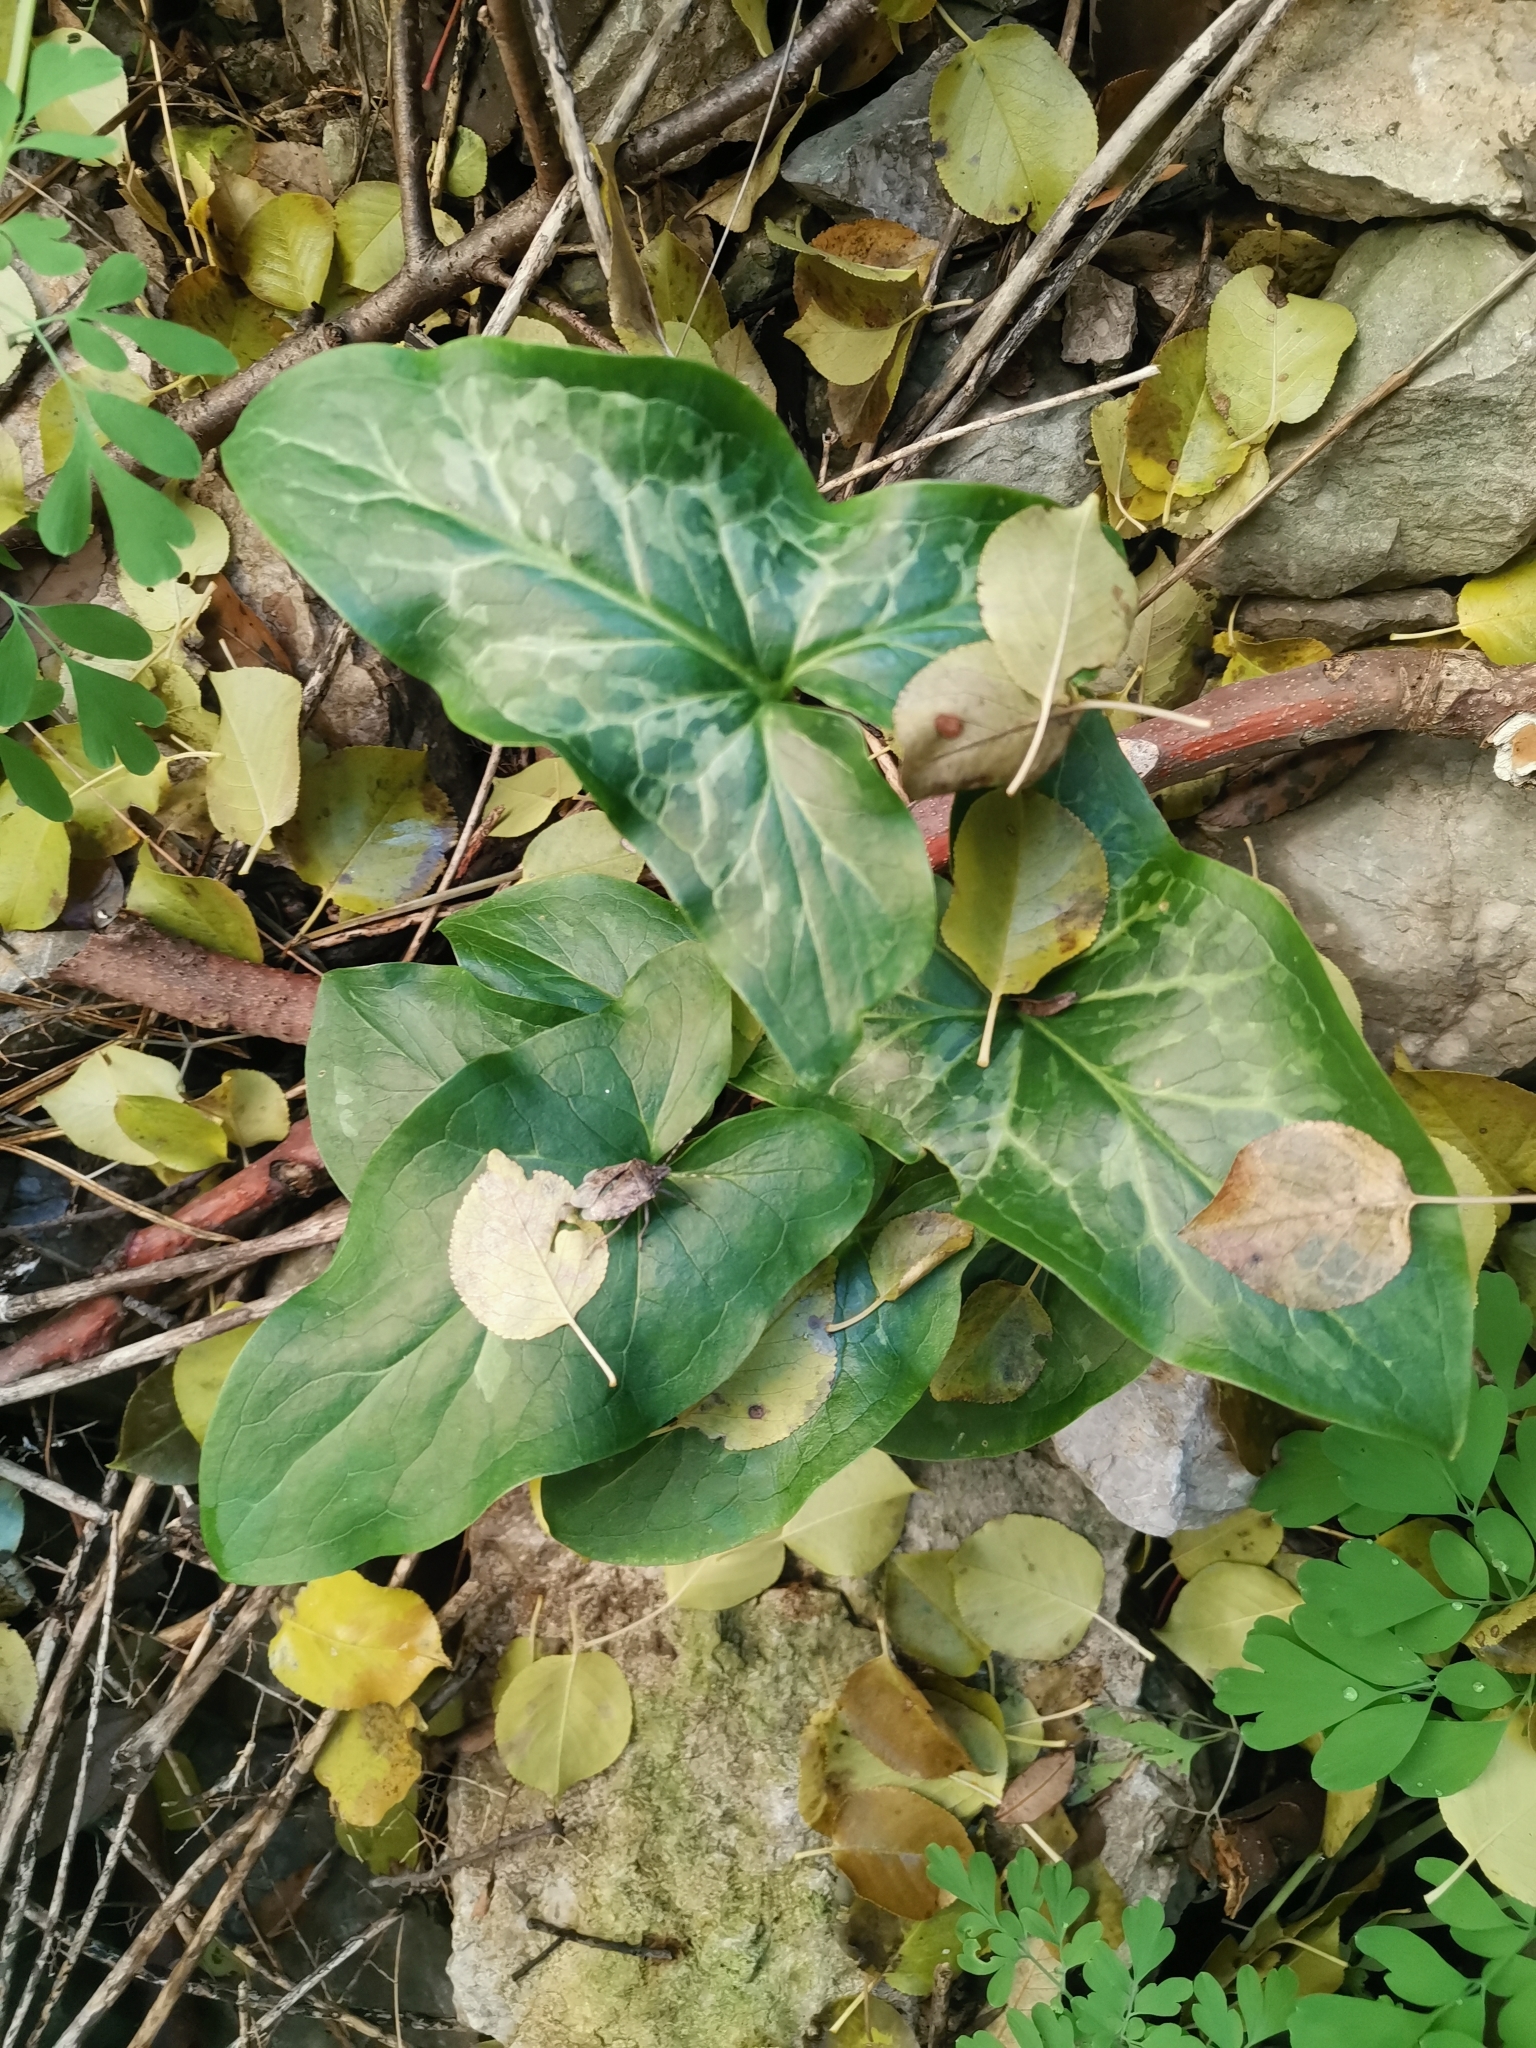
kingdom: Plantae
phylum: Tracheophyta
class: Liliopsida
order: Alismatales
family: Araceae
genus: Arum
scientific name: Arum italicum
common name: Italian lords-and-ladies
